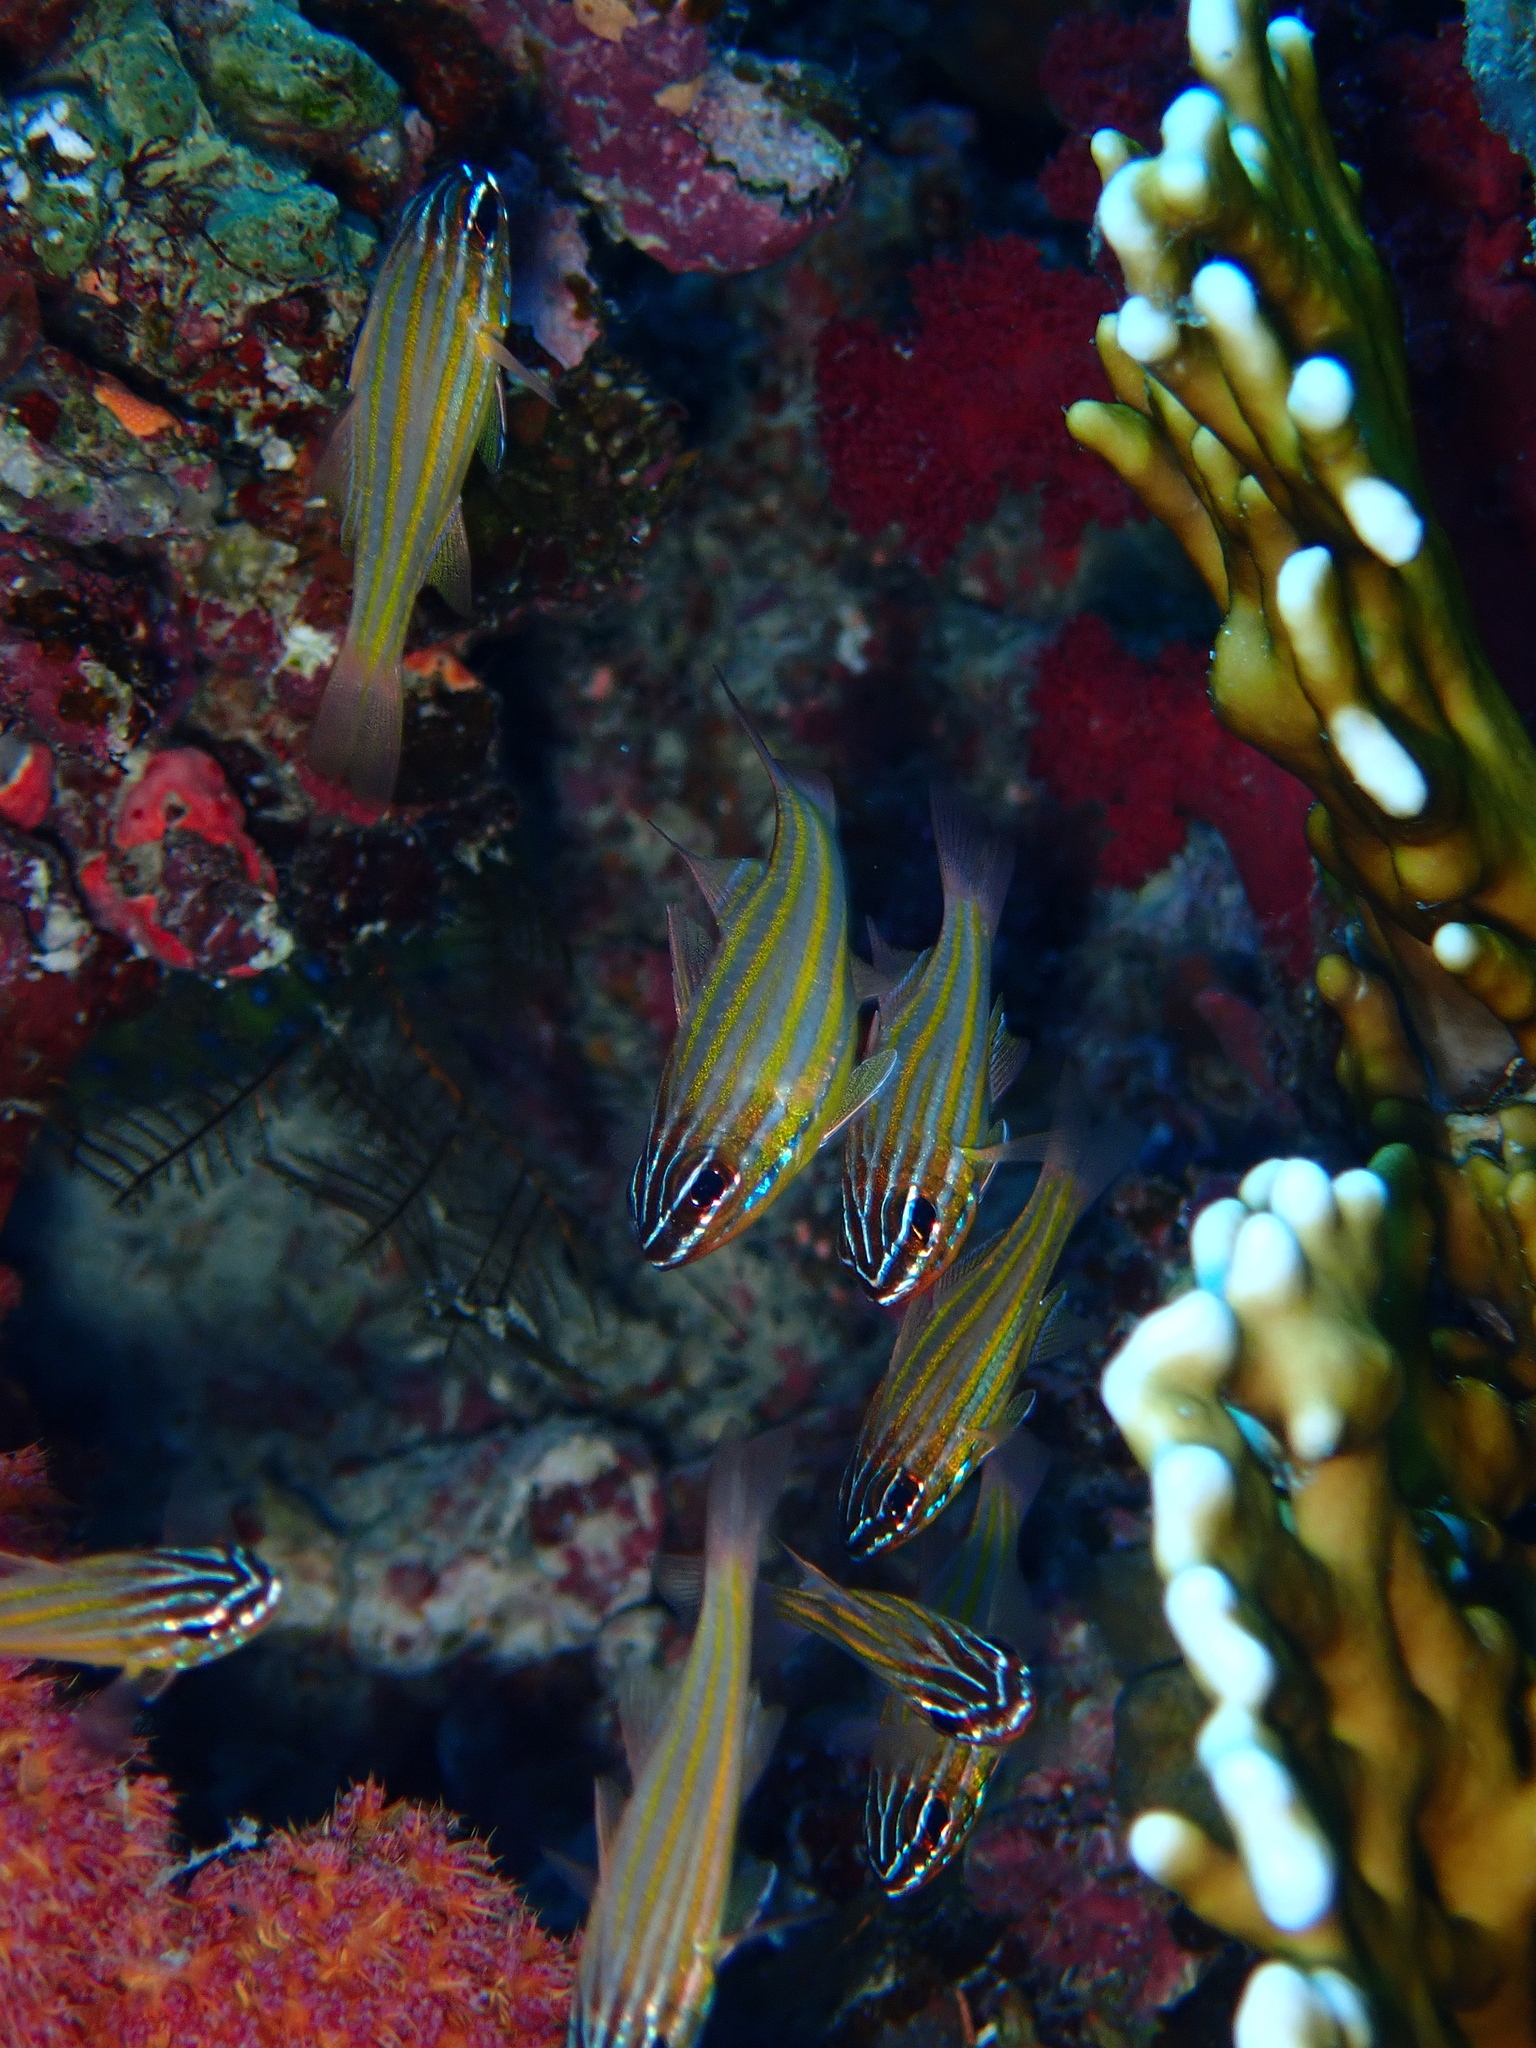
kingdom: Animalia
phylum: Chordata
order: Perciformes
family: Apogonidae
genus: Ostorhinchus
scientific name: Ostorhinchus cyanosoma
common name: Yellow-striped cardinalfish
